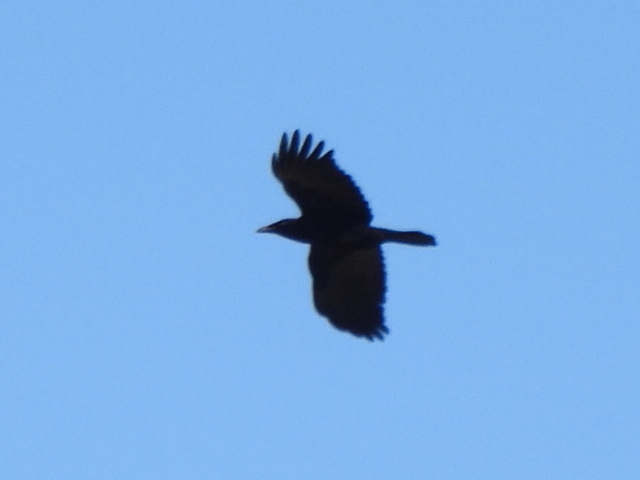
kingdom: Animalia
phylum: Chordata
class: Aves
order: Passeriformes
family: Corvidae
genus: Corvus
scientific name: Corvus brachyrhynchos
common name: American crow
